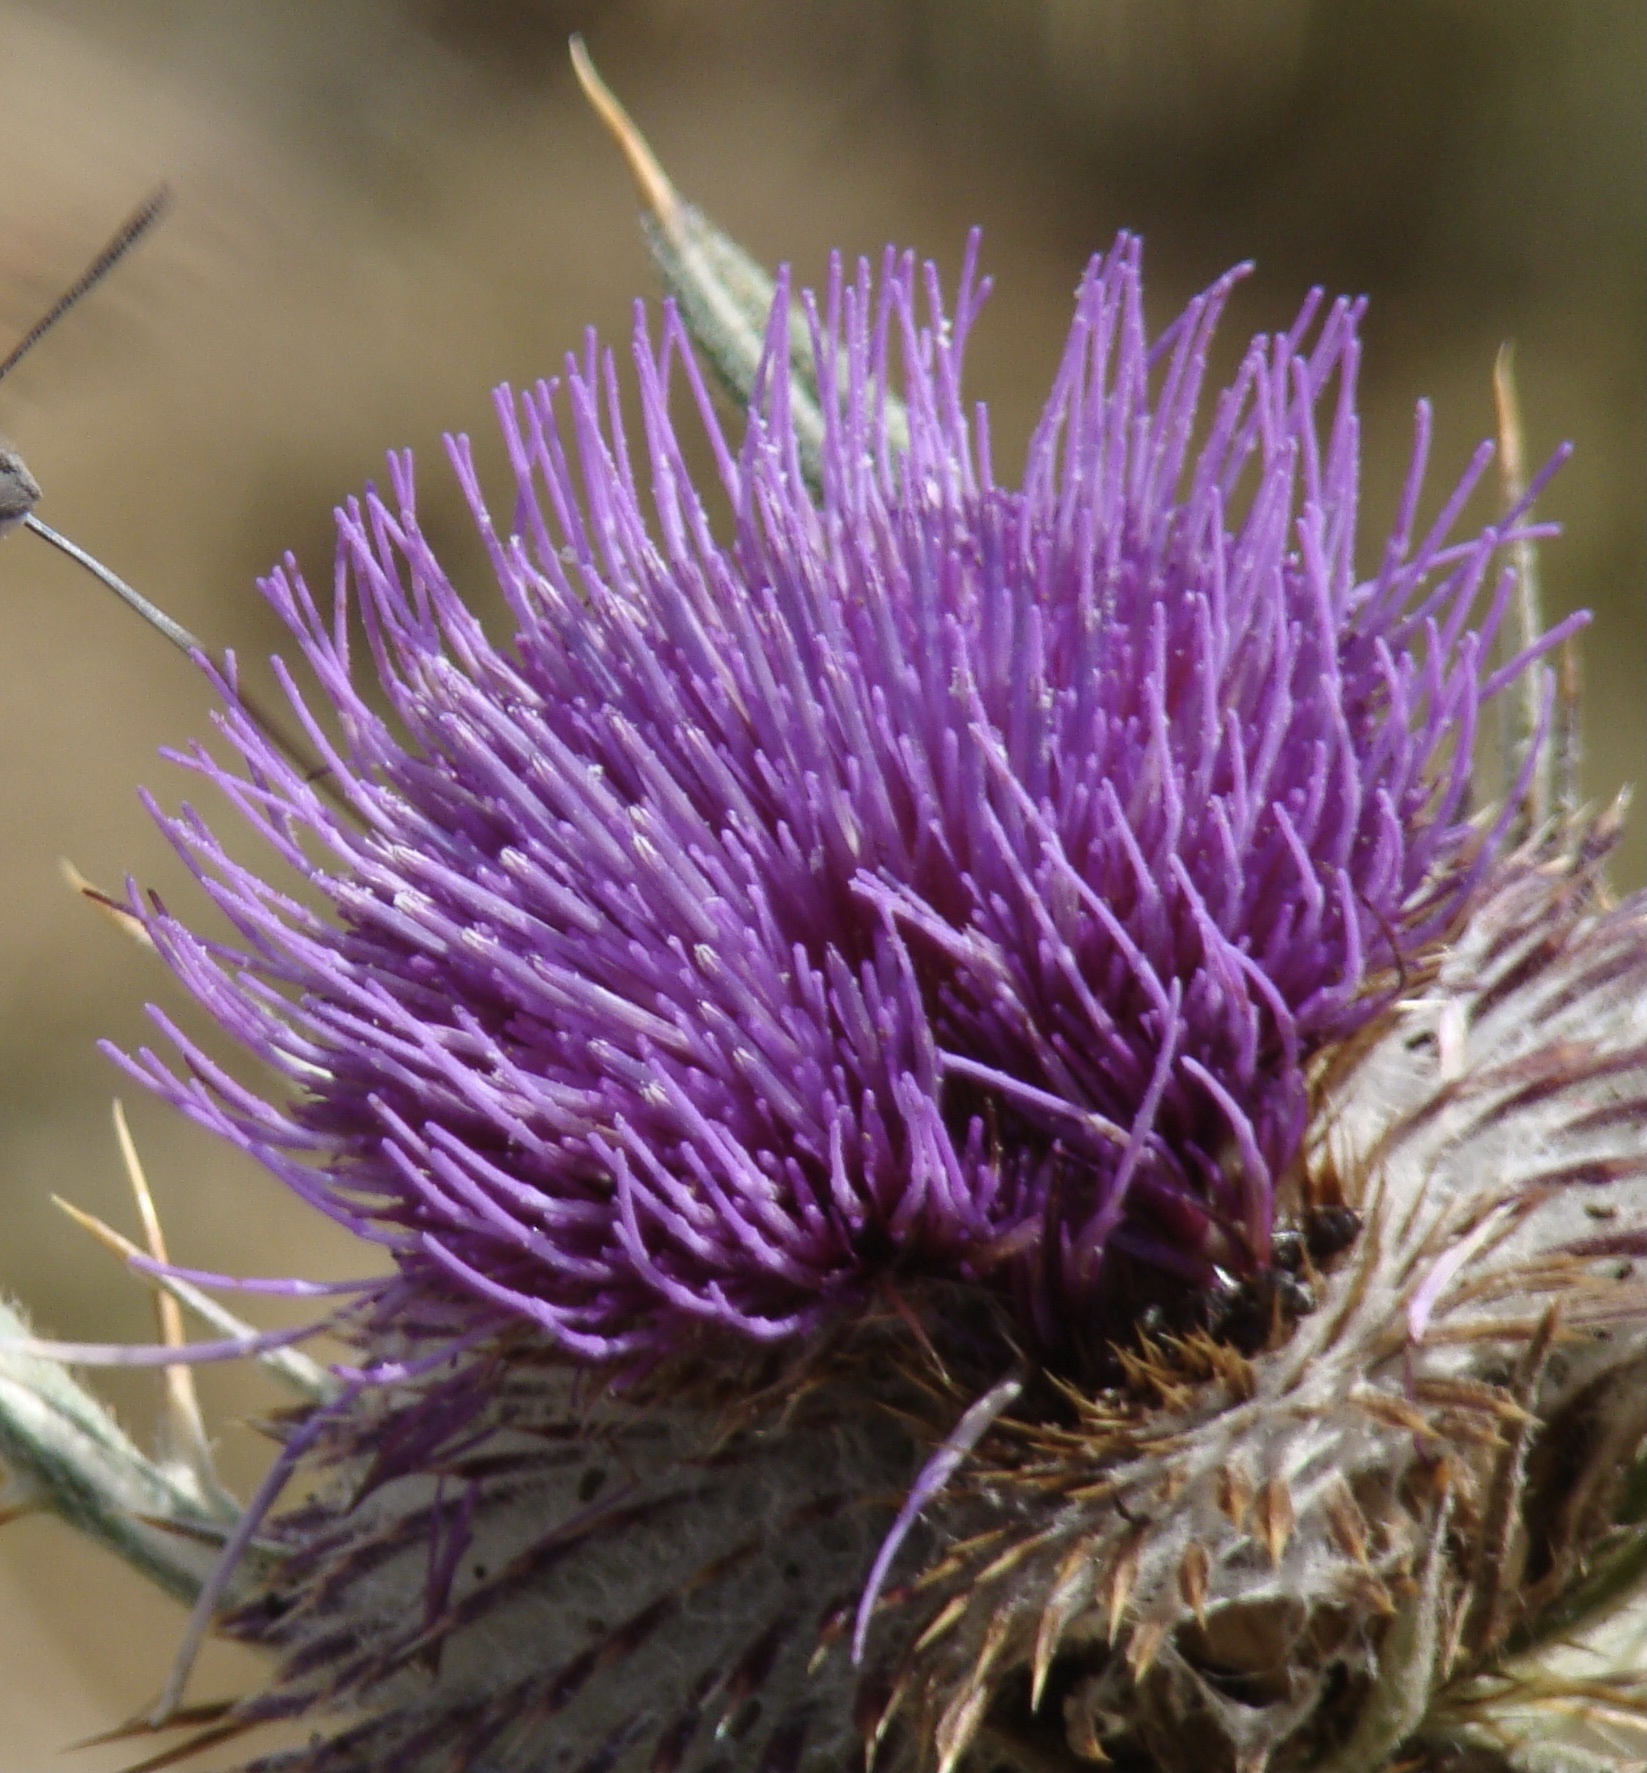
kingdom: Plantae
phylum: Tracheophyta
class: Magnoliopsida
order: Asterales
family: Asteraceae
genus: Lophiolepis
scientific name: Lophiolepis eriophora
